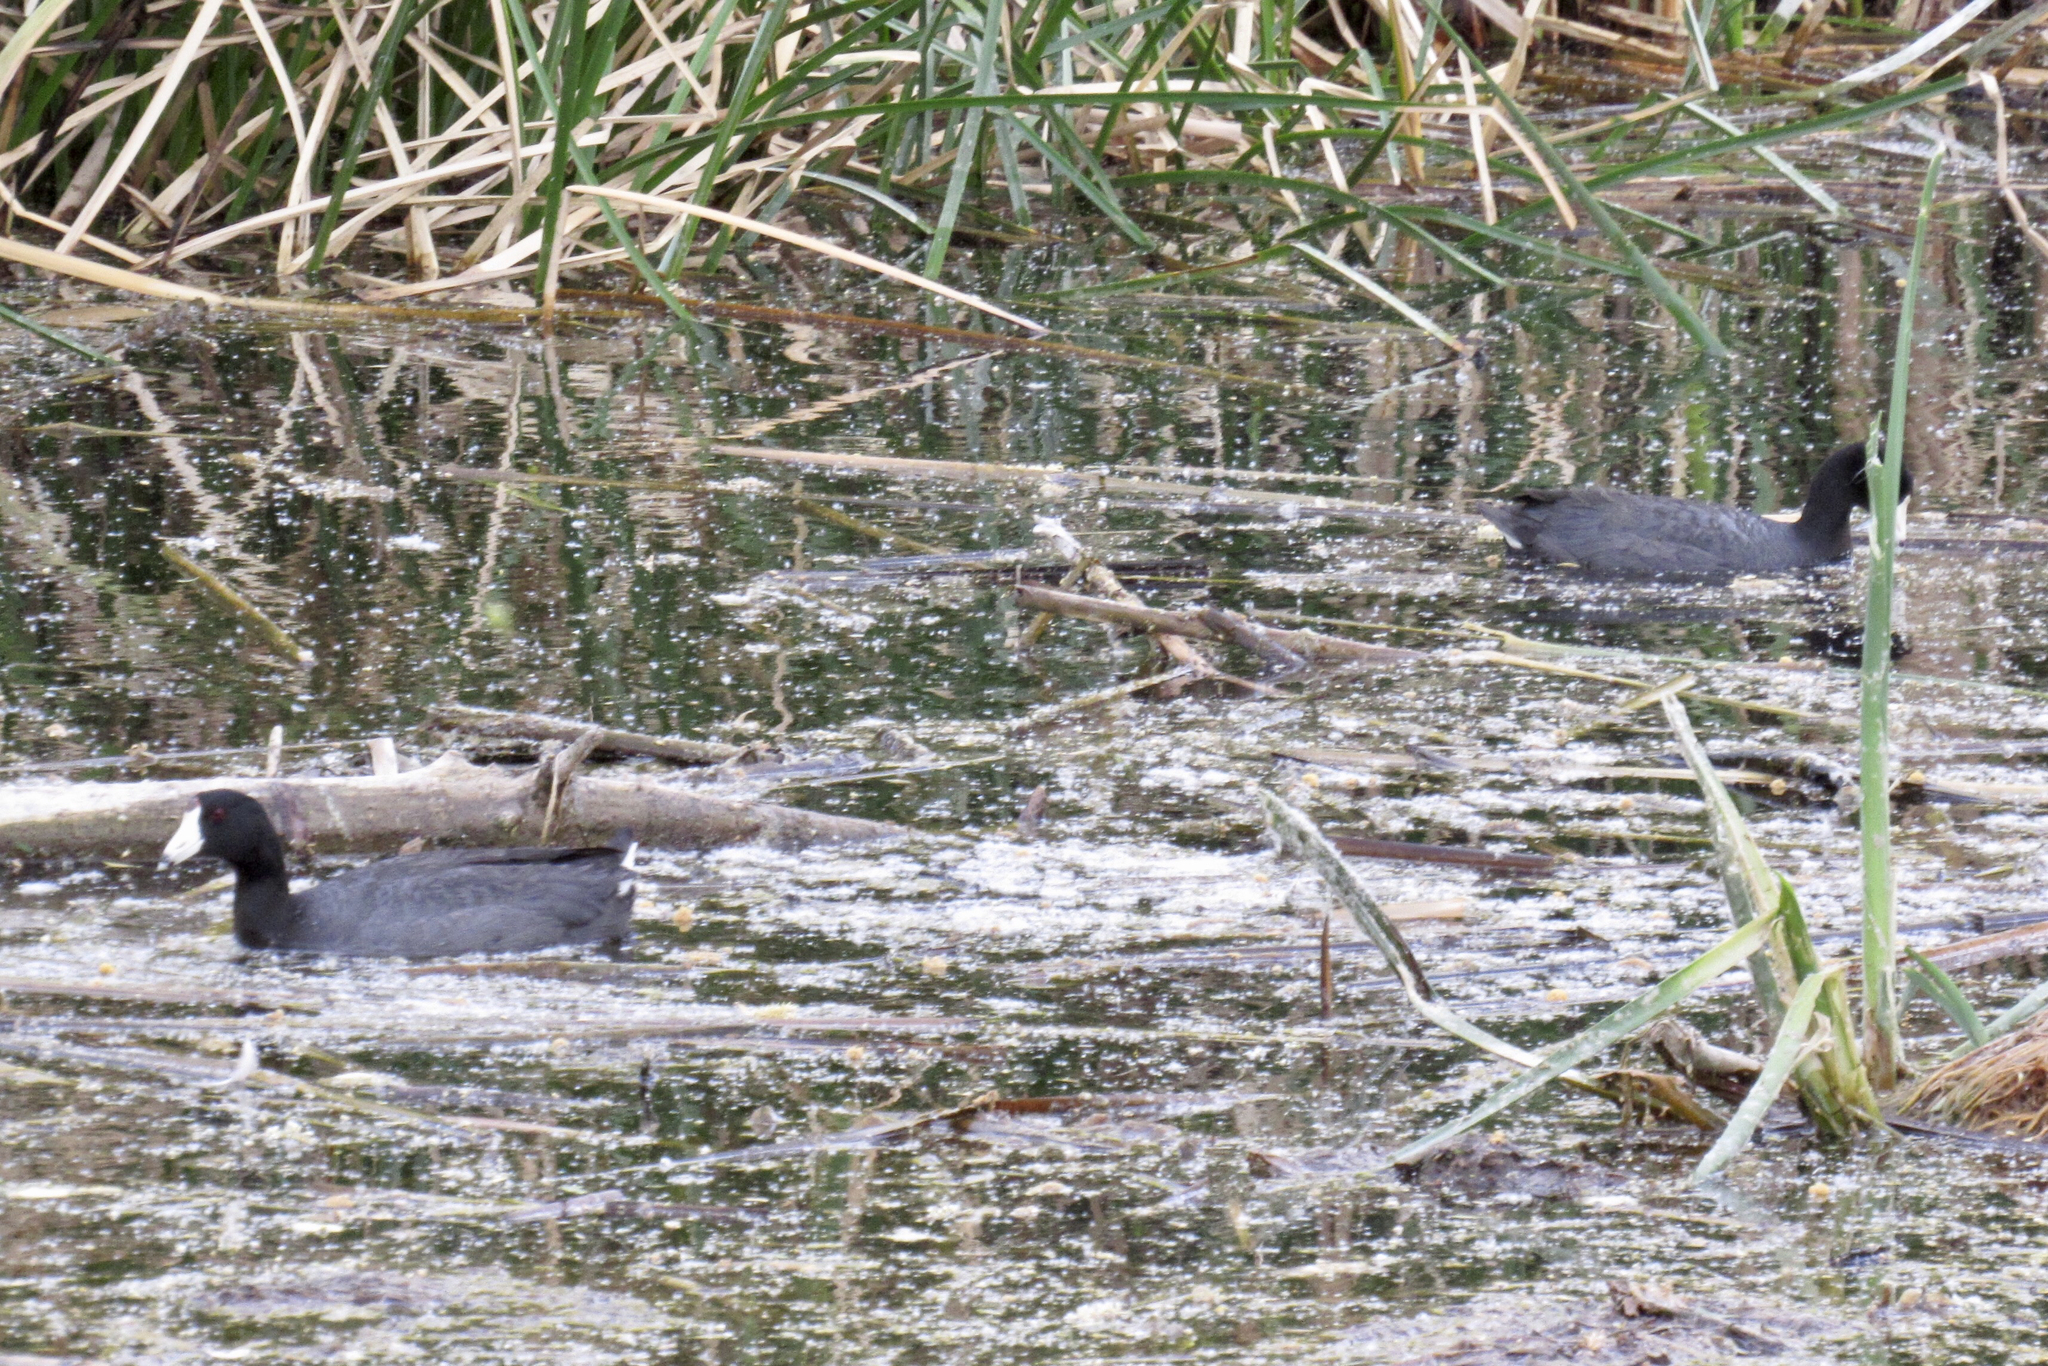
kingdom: Animalia
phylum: Chordata
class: Aves
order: Gruiformes
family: Rallidae
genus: Fulica
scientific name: Fulica americana
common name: American coot
